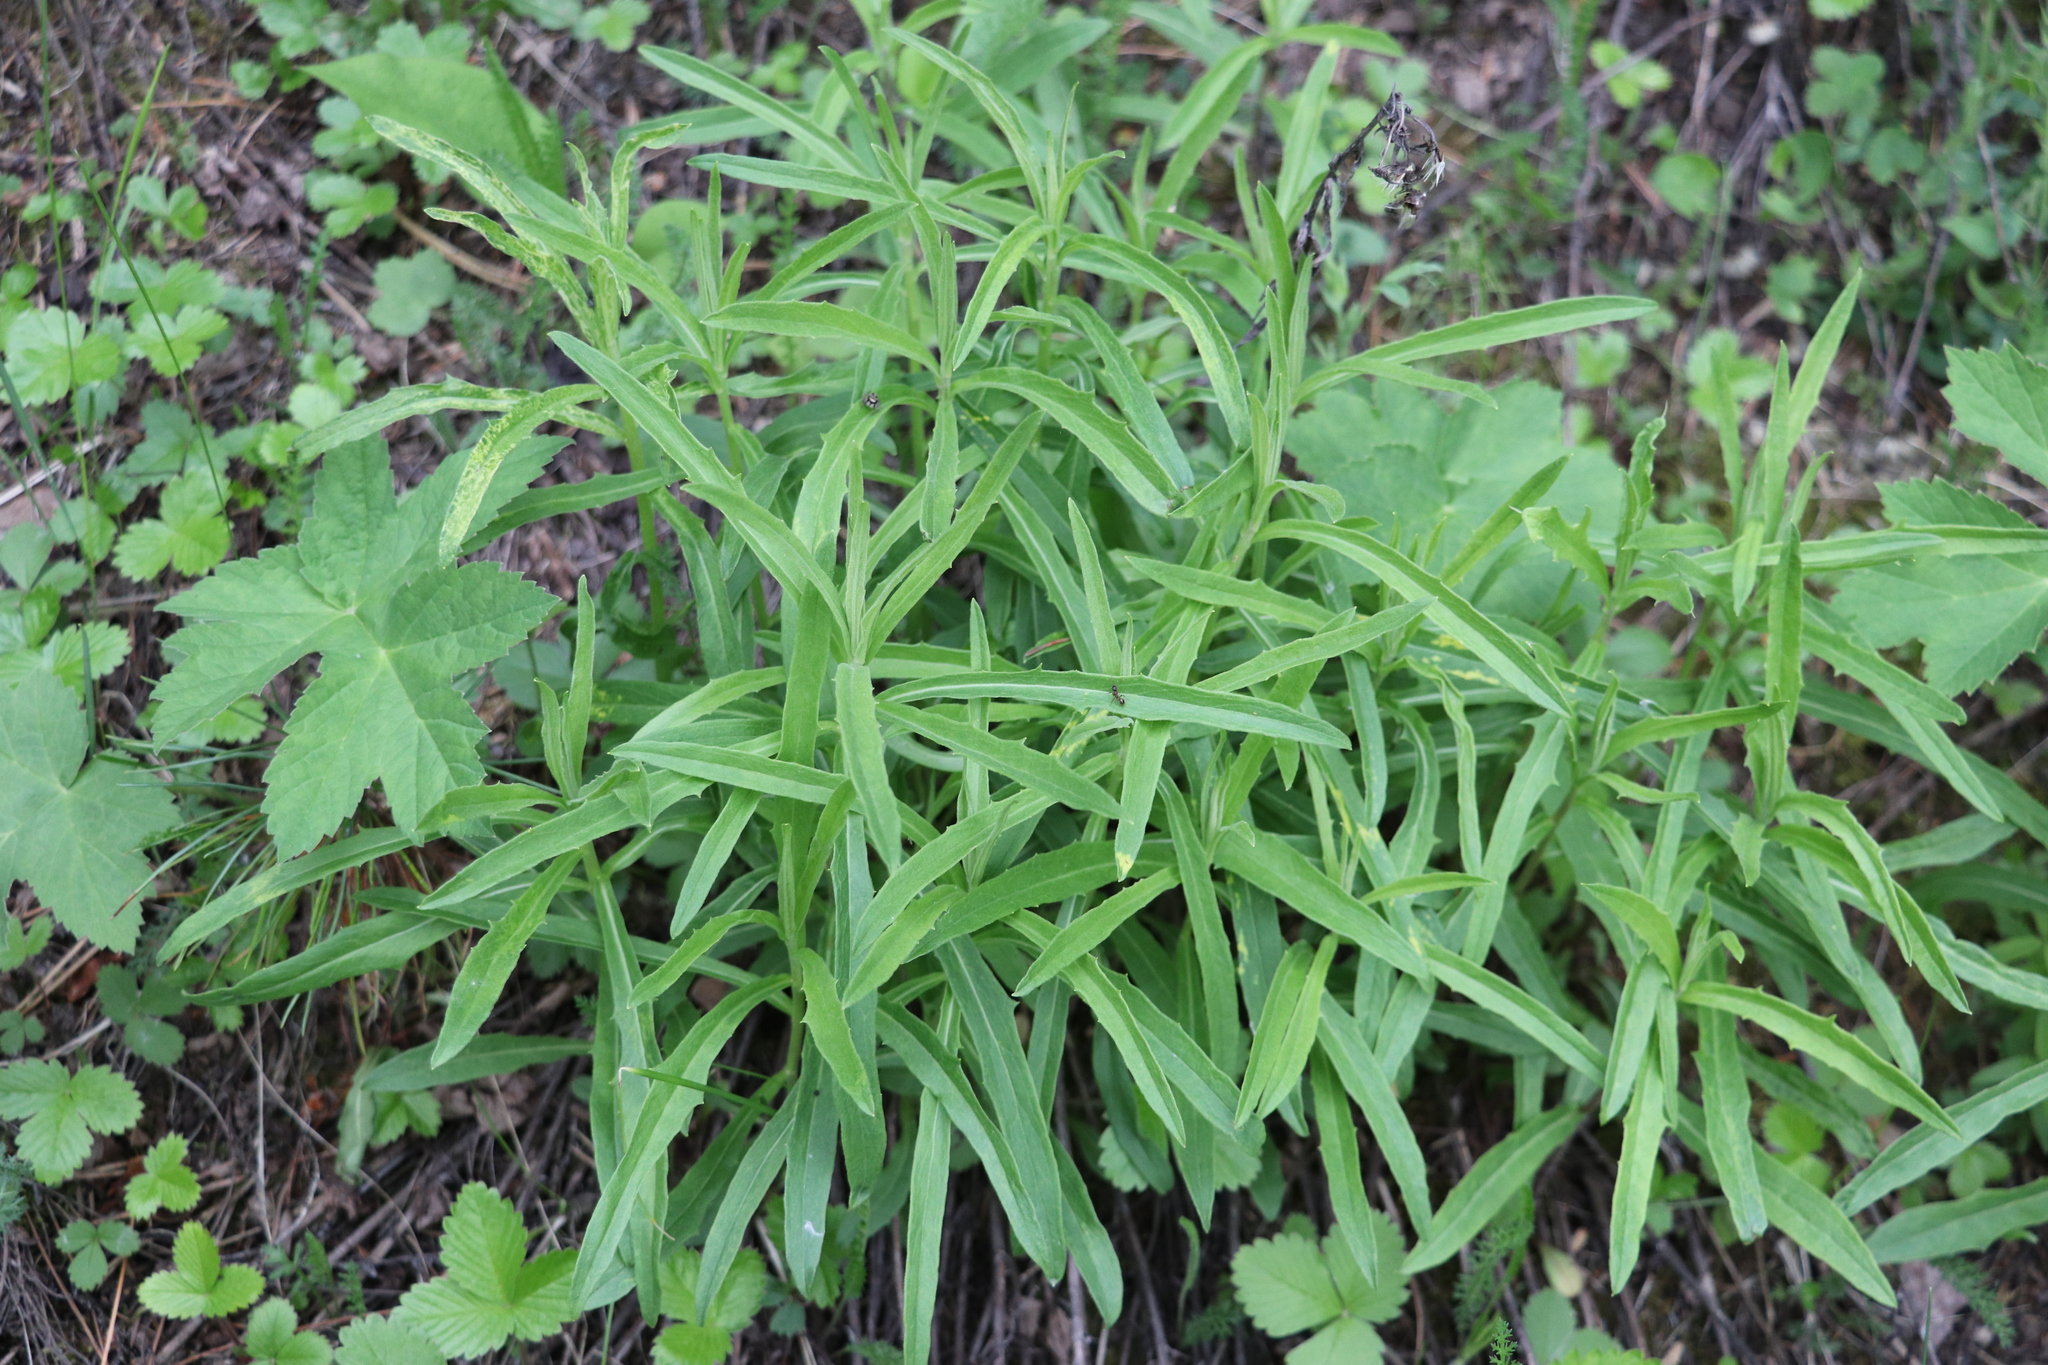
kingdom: Plantae
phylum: Tracheophyta
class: Magnoliopsida
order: Asterales
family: Asteraceae
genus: Hieracium
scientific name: Hieracium umbellatum
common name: Northern hawkweed
